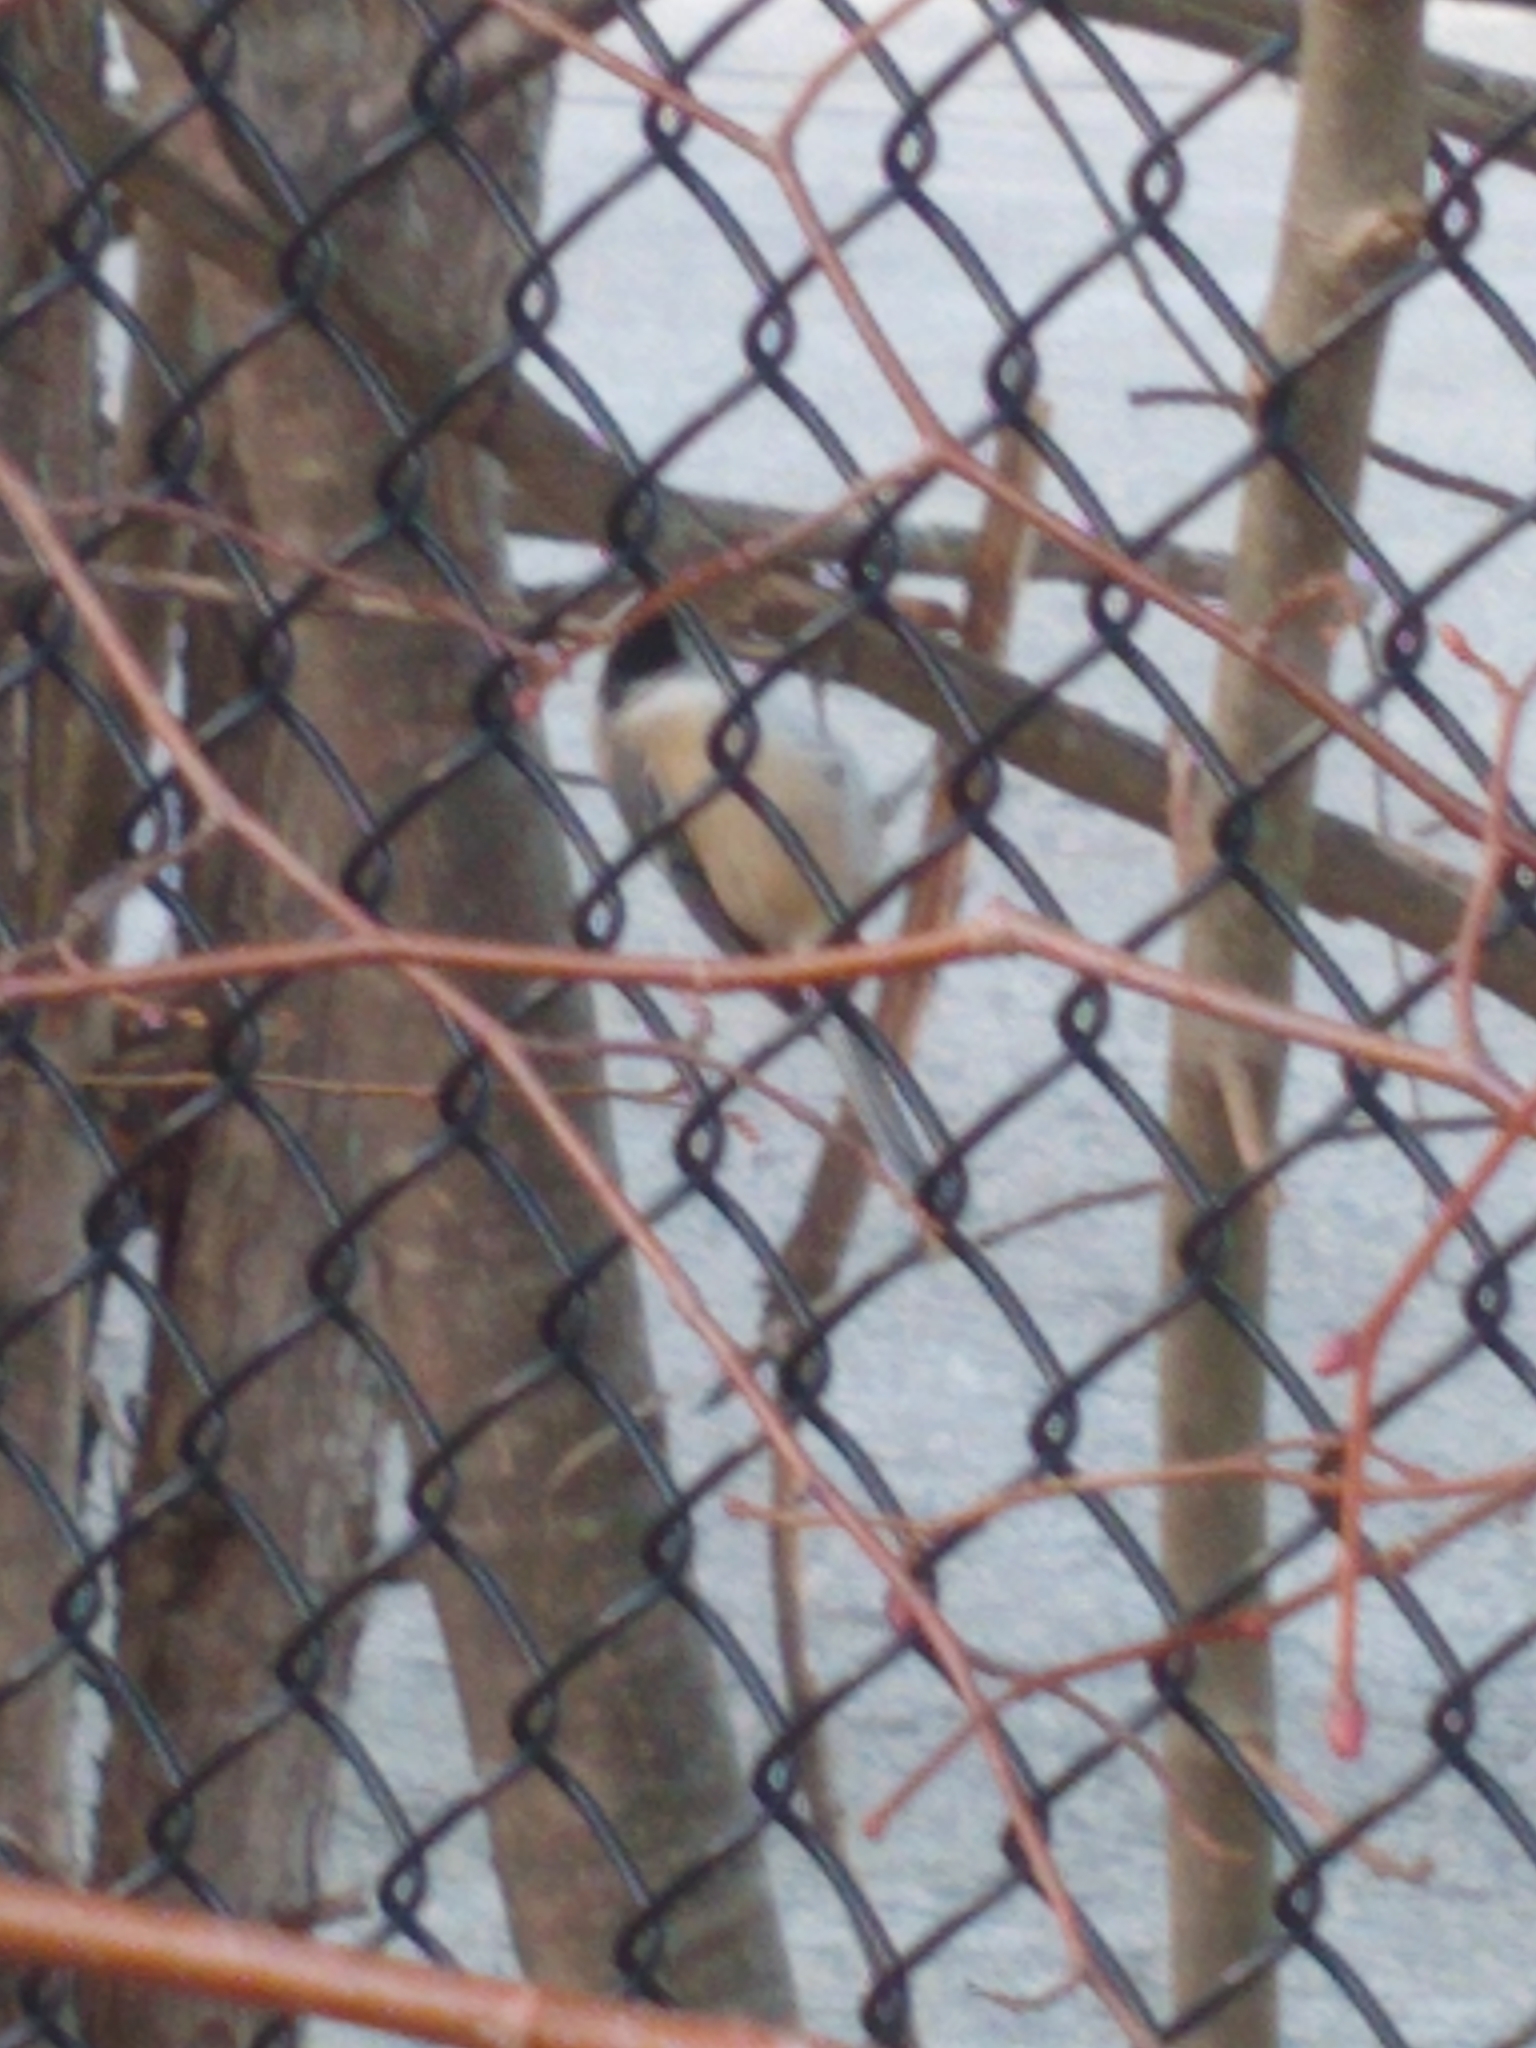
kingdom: Animalia
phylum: Chordata
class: Aves
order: Passeriformes
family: Paridae
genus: Poecile
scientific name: Poecile atricapillus
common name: Black-capped chickadee
